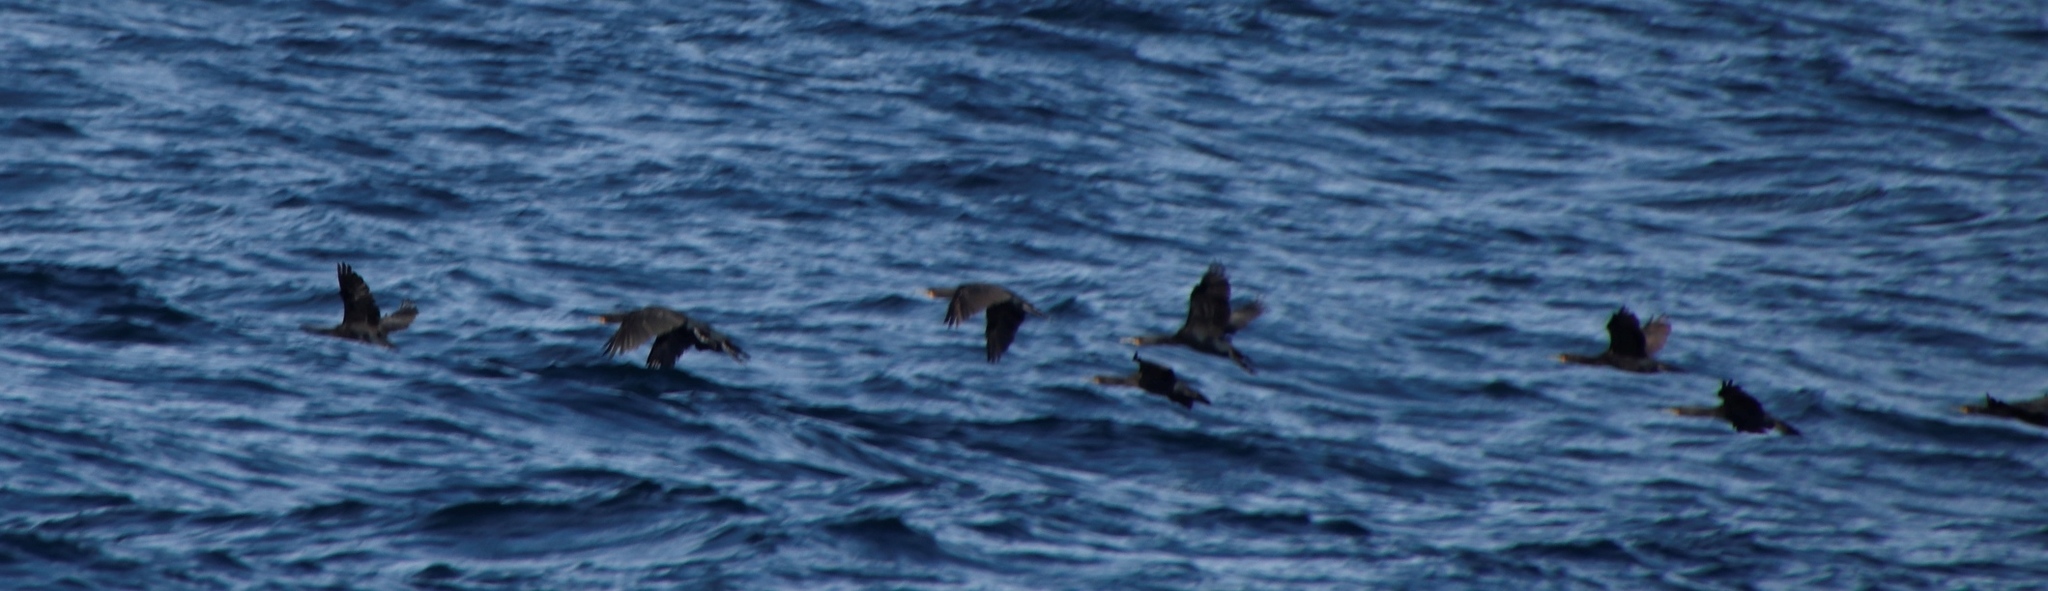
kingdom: Animalia
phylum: Chordata
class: Aves
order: Suliformes
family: Phalacrocoracidae
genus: Phalacrocorax
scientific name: Phalacrocorax capensis
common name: Cape cormorant
